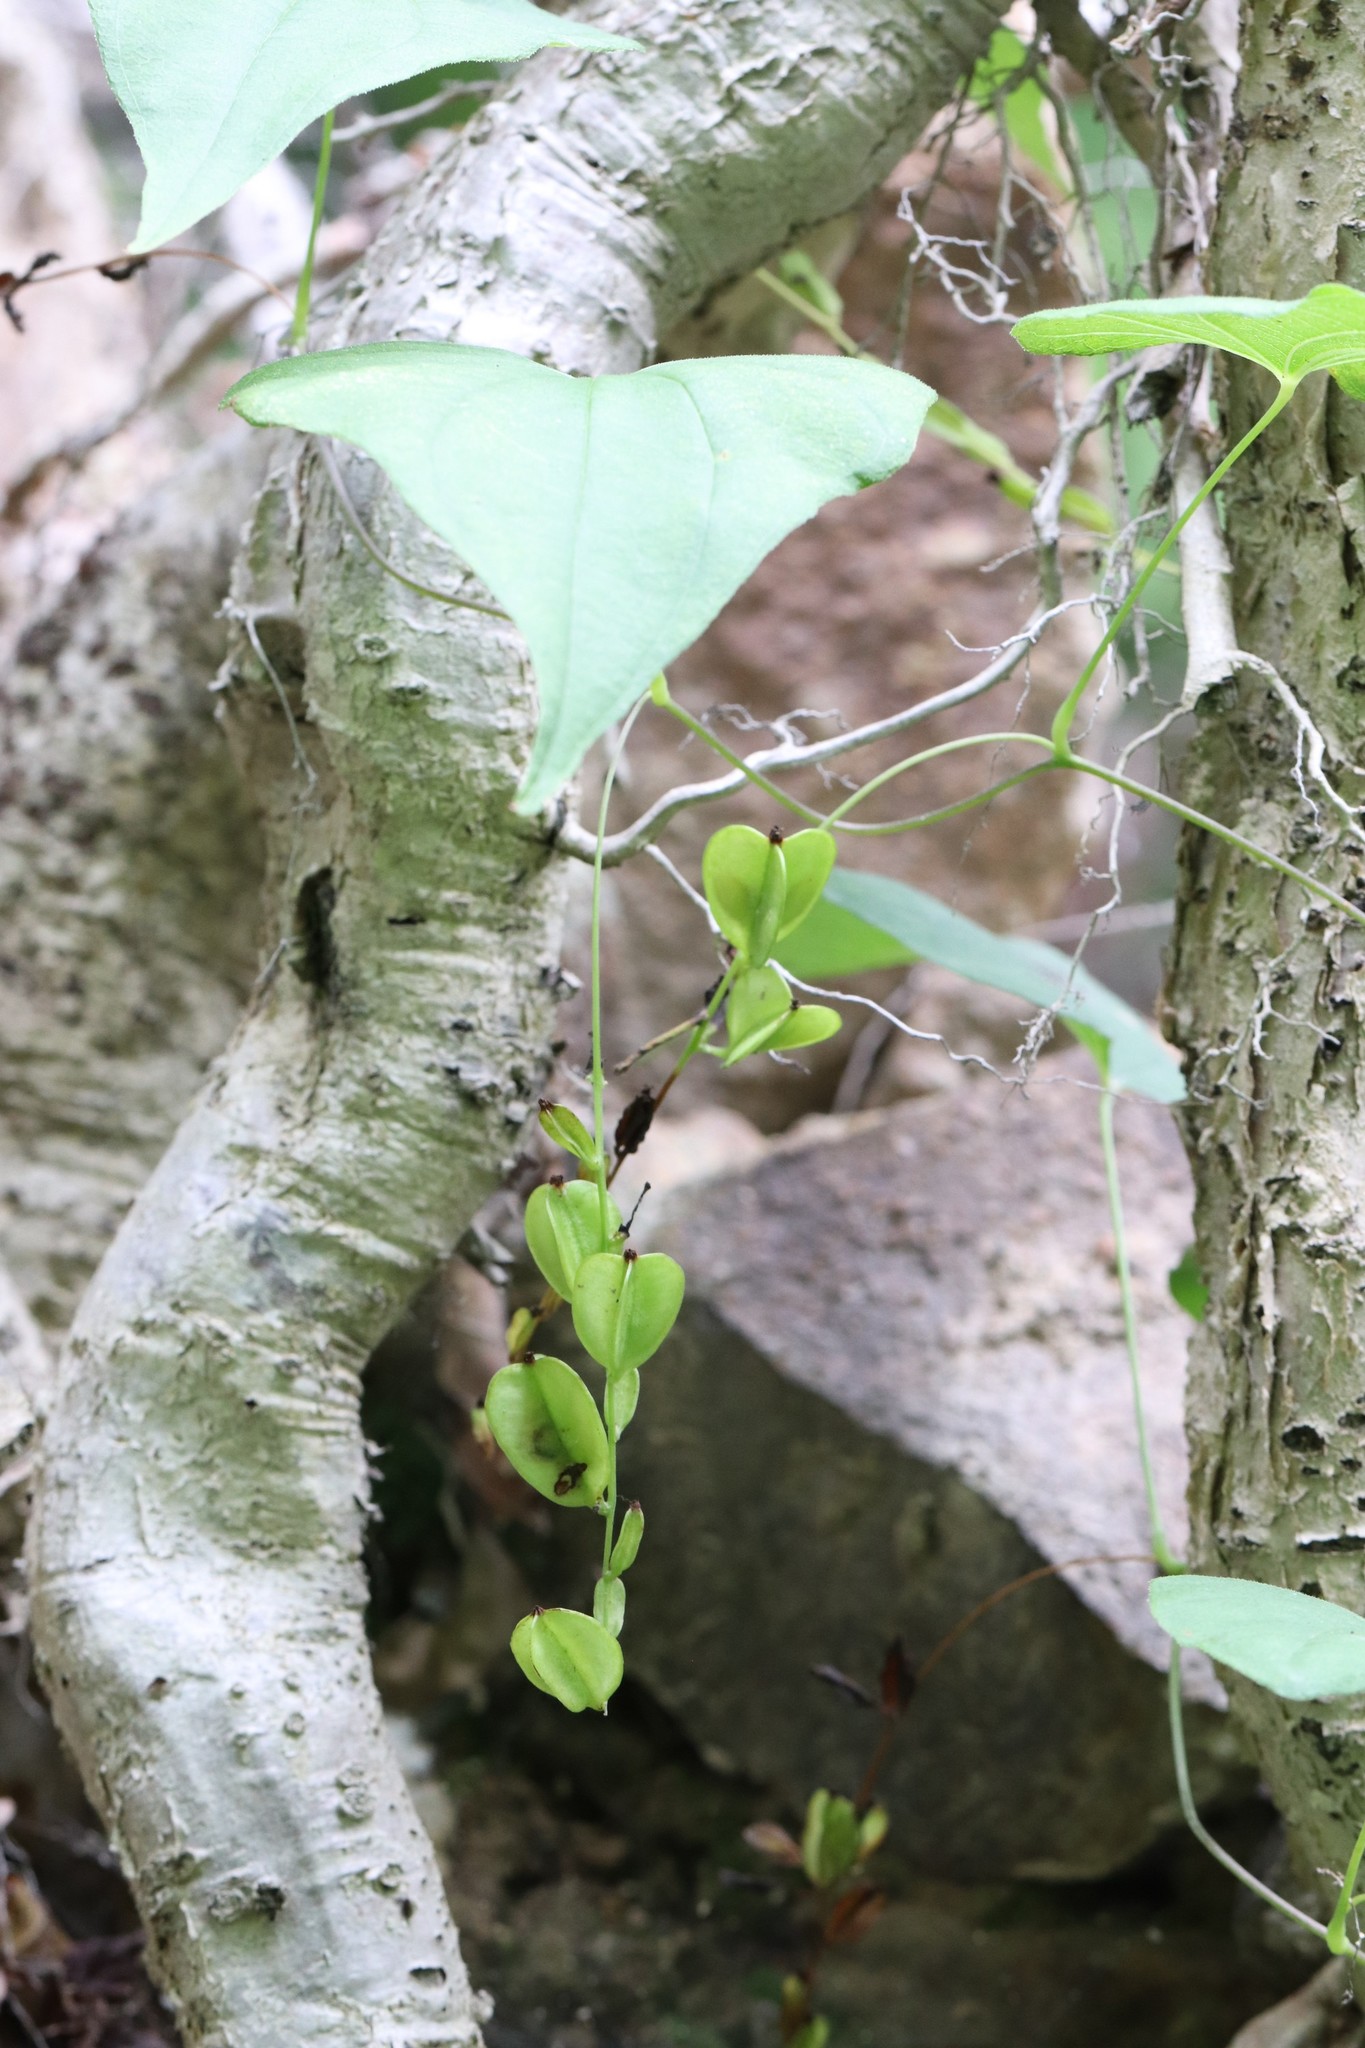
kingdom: Plantae
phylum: Tracheophyta
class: Liliopsida
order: Dioscoreales
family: Dioscoreaceae
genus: Dioscorea
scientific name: Dioscorea nipponica
